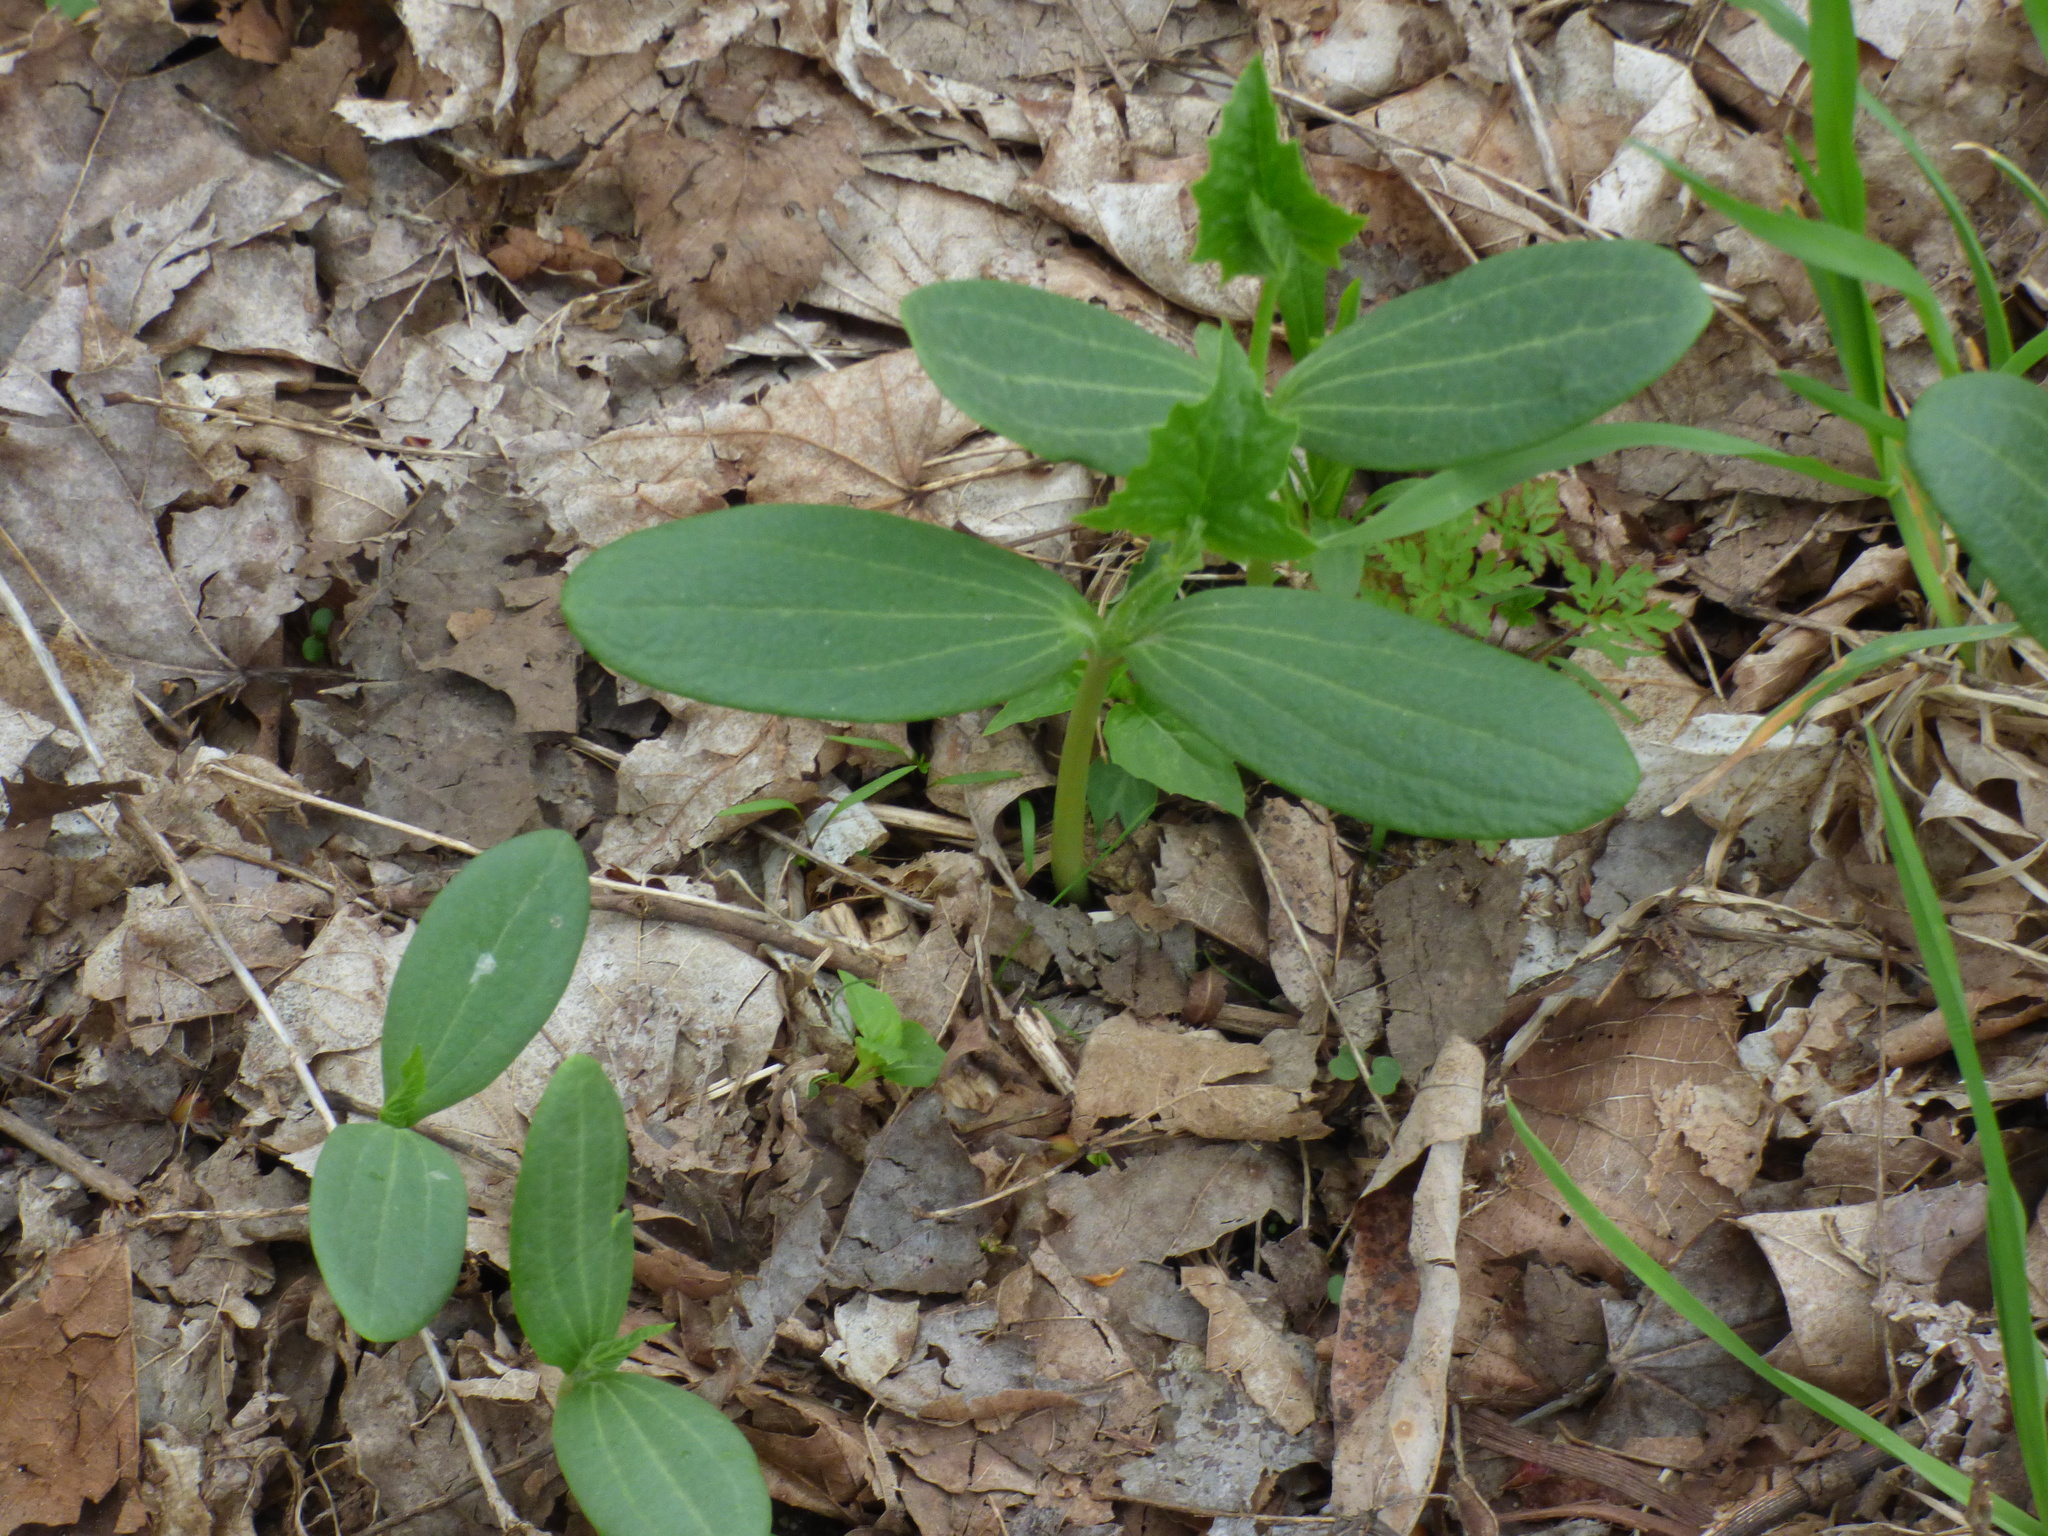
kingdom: Plantae
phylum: Tracheophyta
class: Magnoliopsida
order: Cucurbitales
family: Cucurbitaceae
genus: Echinocystis
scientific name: Echinocystis lobata
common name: Wild cucumber
